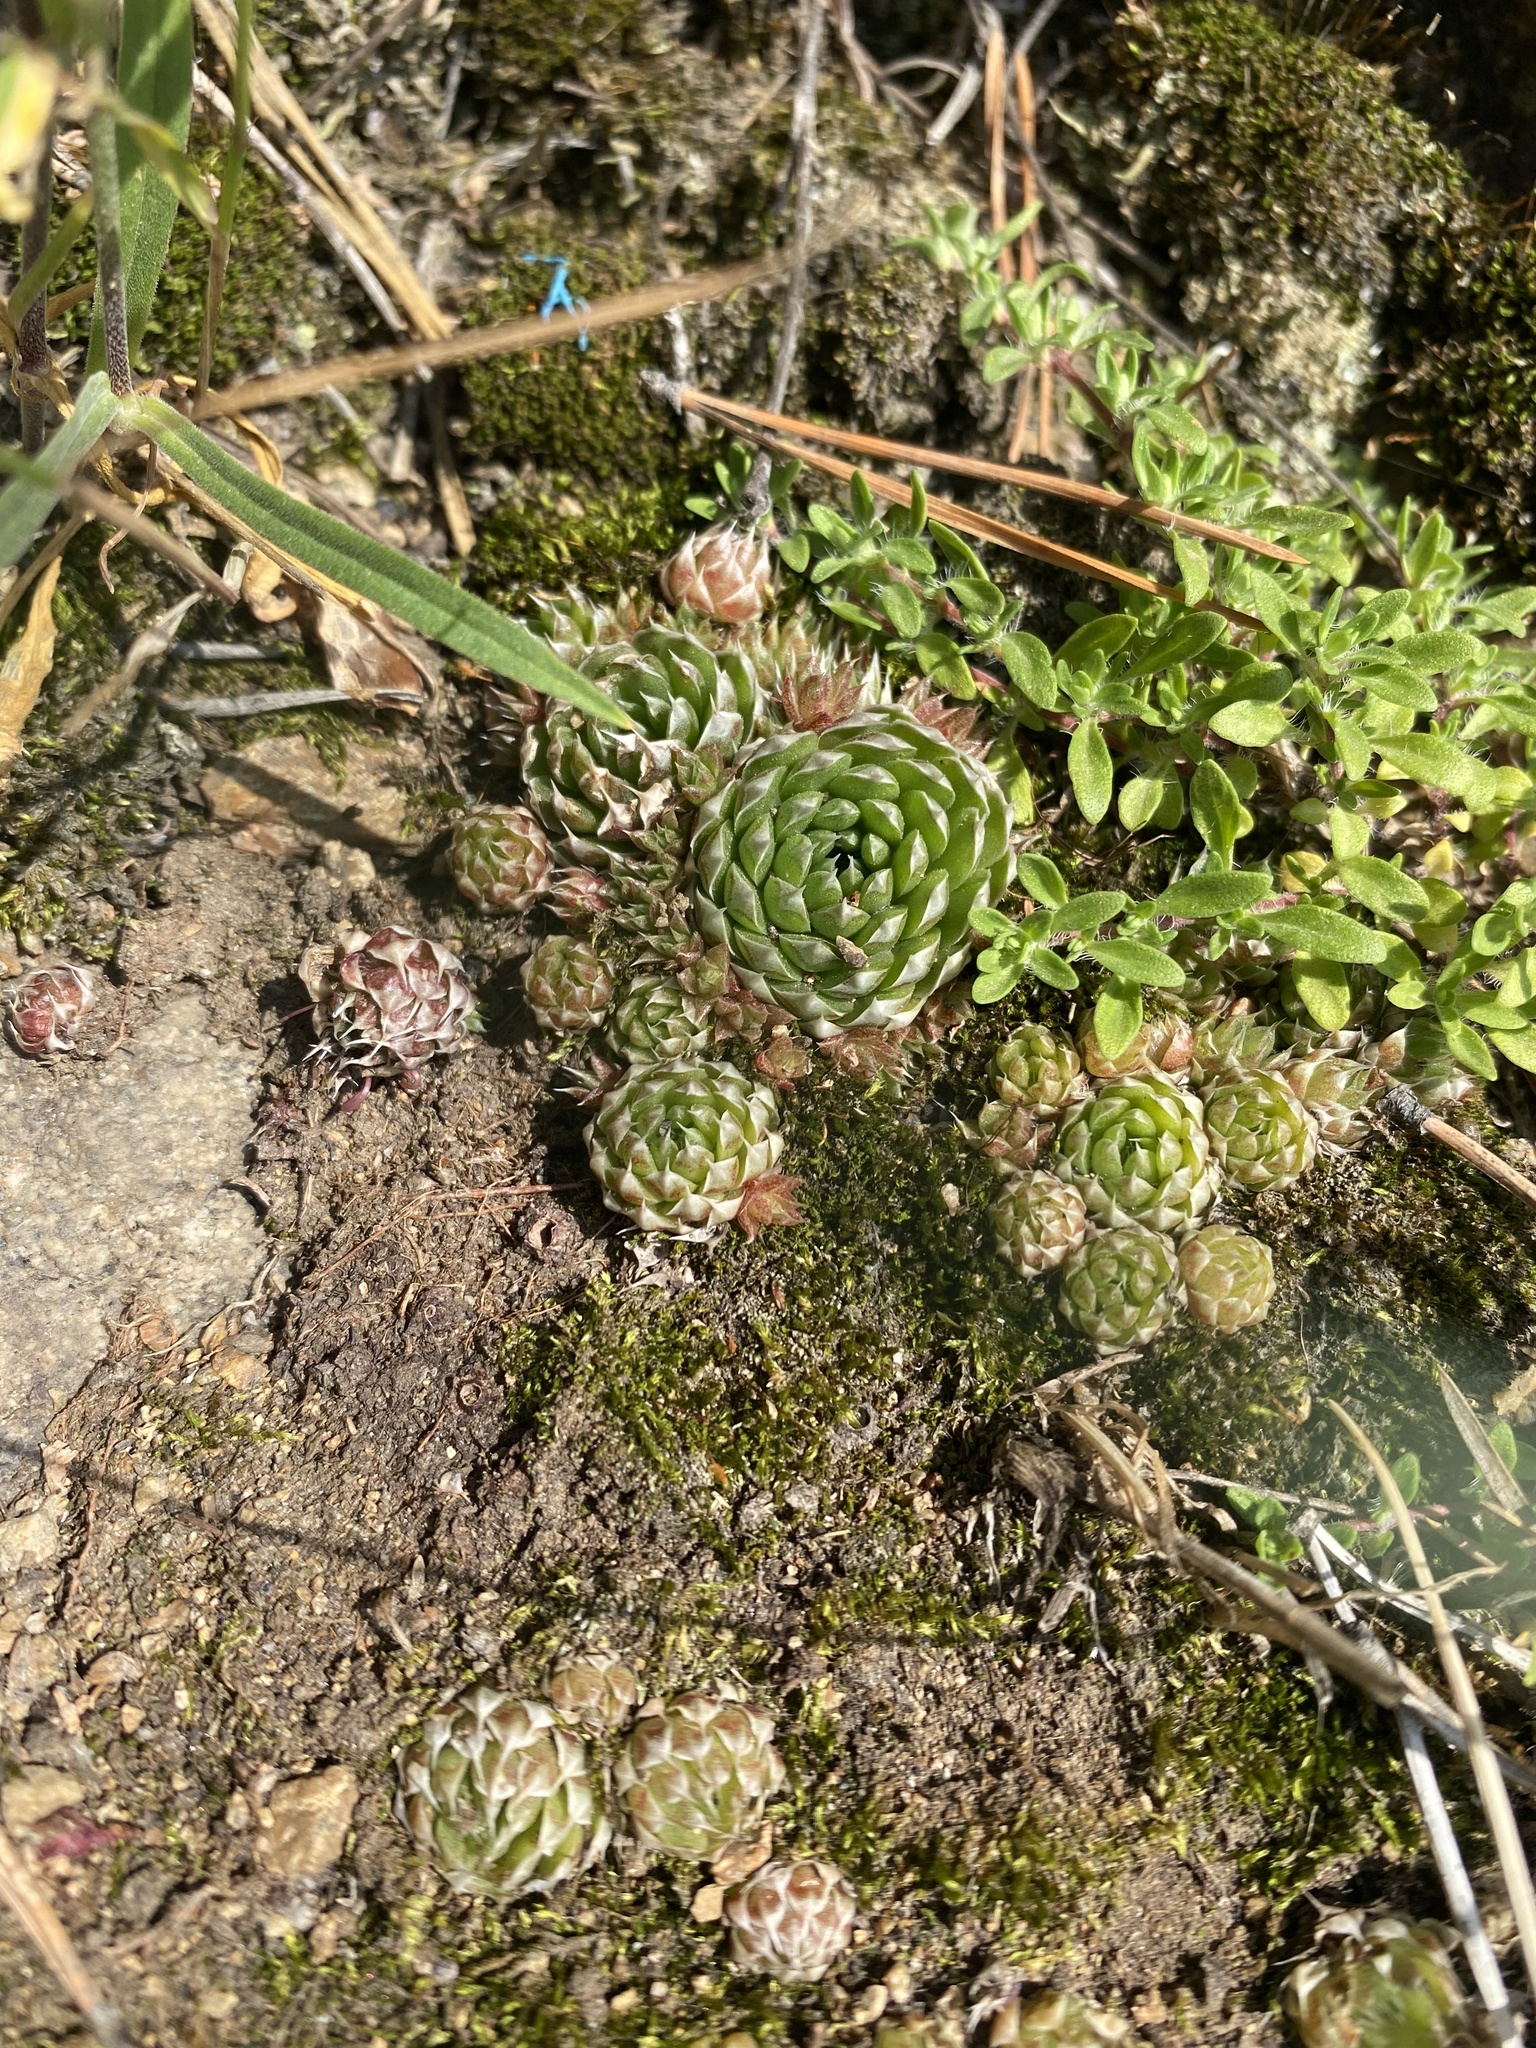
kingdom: Plantae
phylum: Tracheophyta
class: Magnoliopsida
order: Saxifragales
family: Crassulaceae
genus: Orostachys
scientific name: Orostachys spinosa
